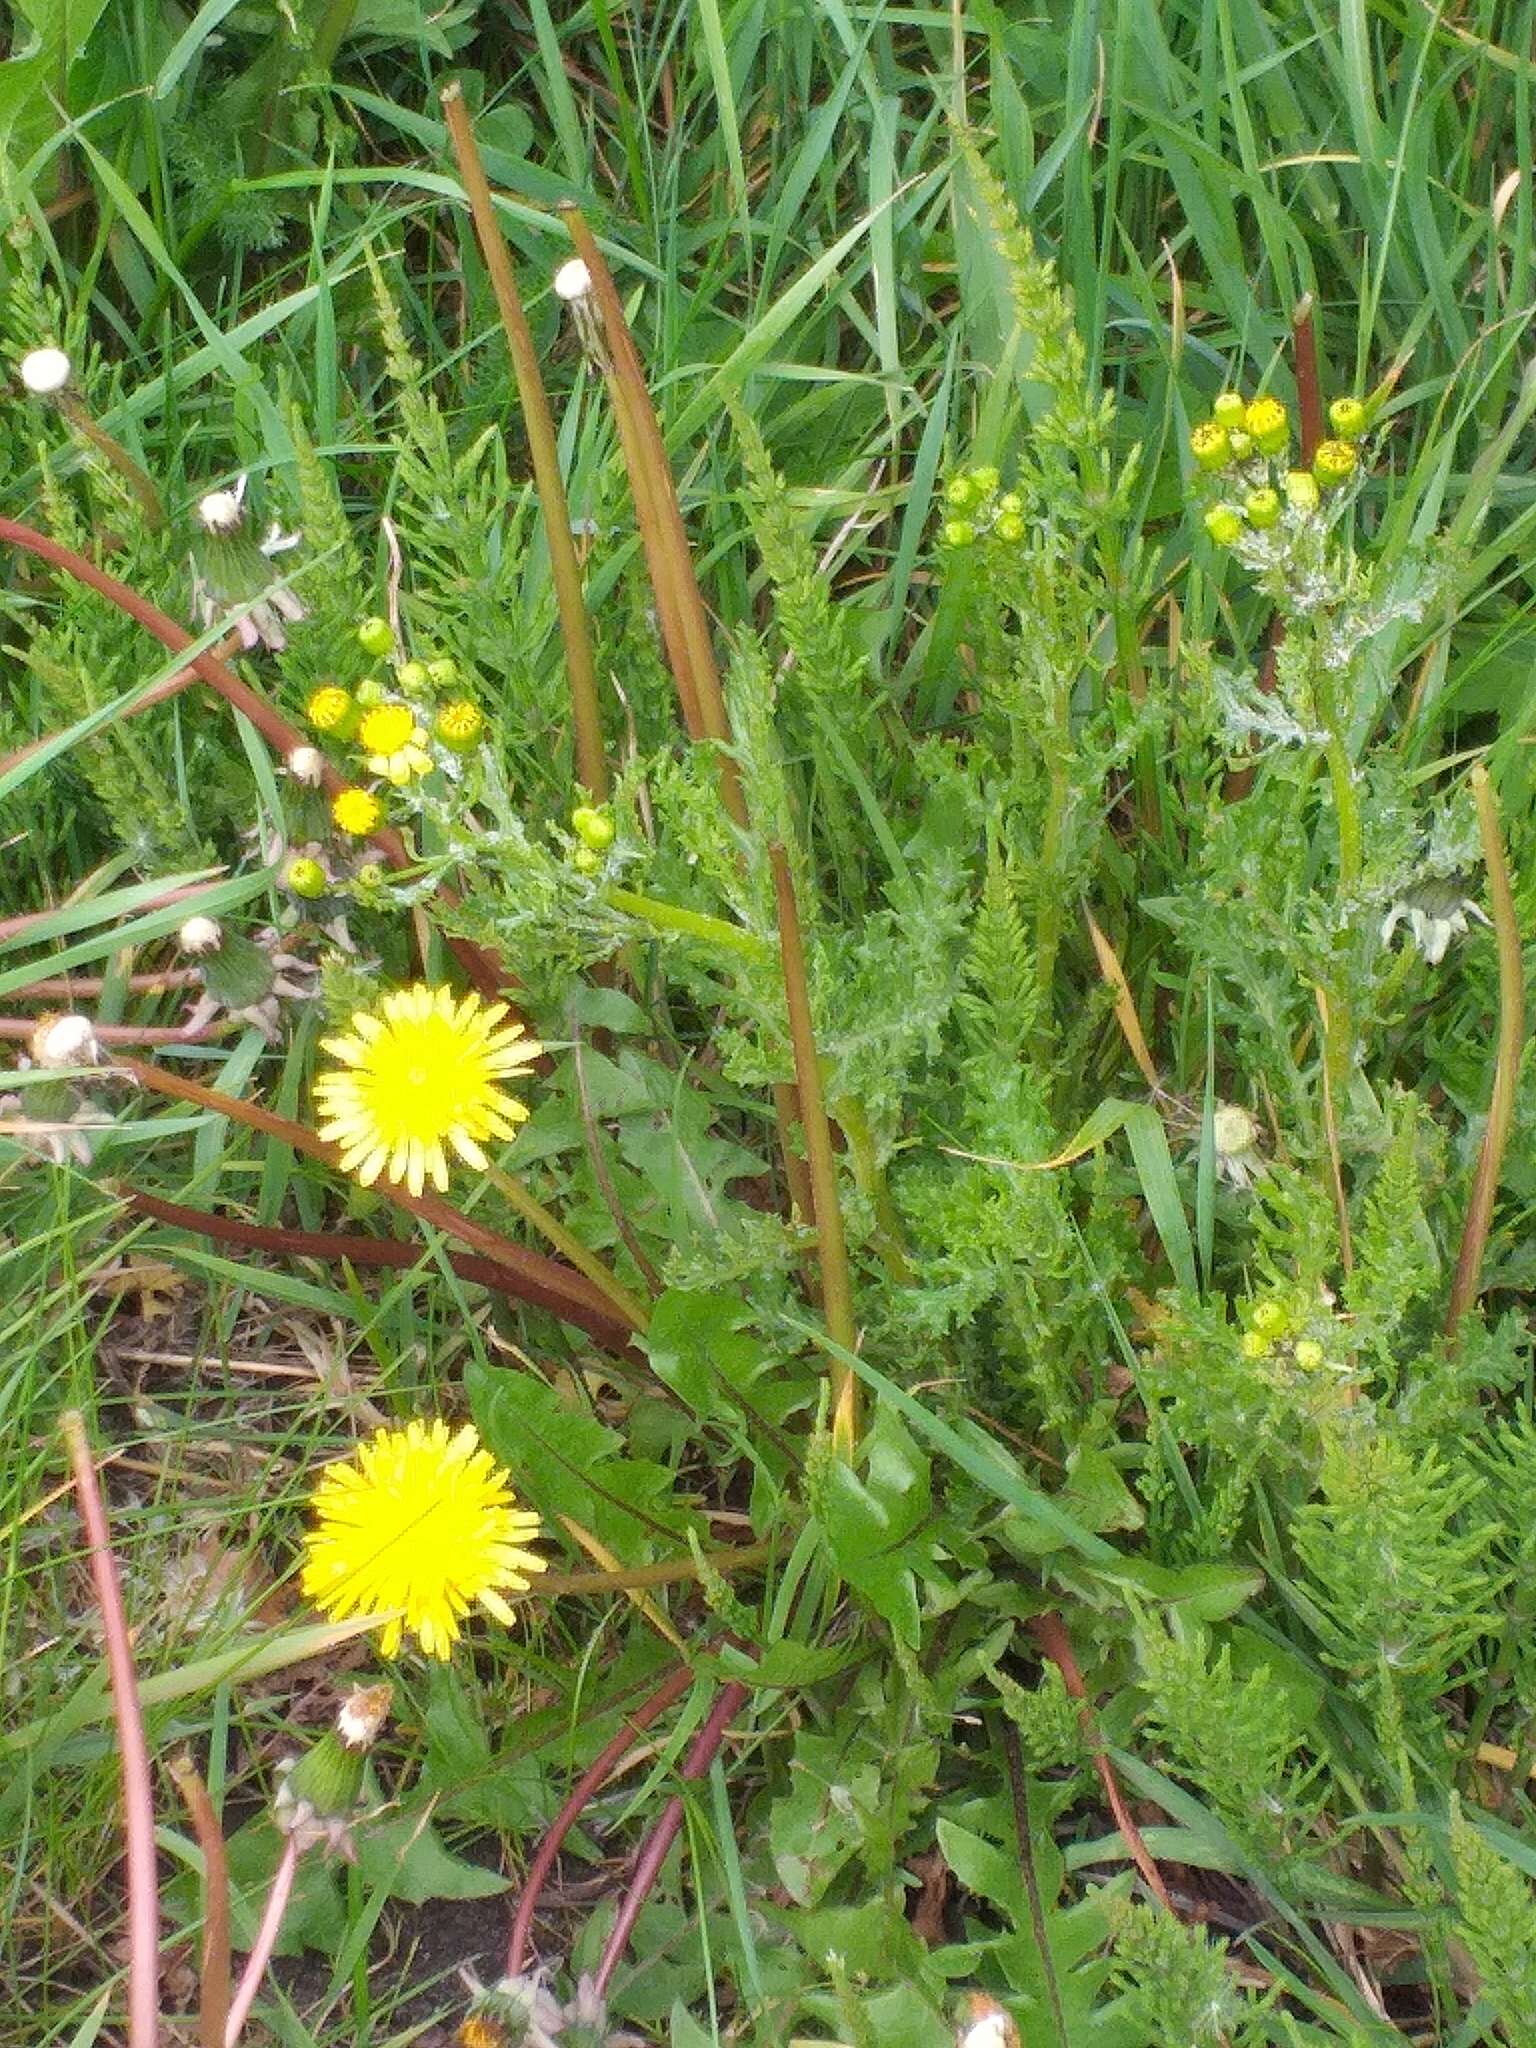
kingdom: Plantae
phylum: Tracheophyta
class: Magnoliopsida
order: Asterales
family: Asteraceae
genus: Taraxacum
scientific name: Taraxacum officinale
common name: Common dandelion
